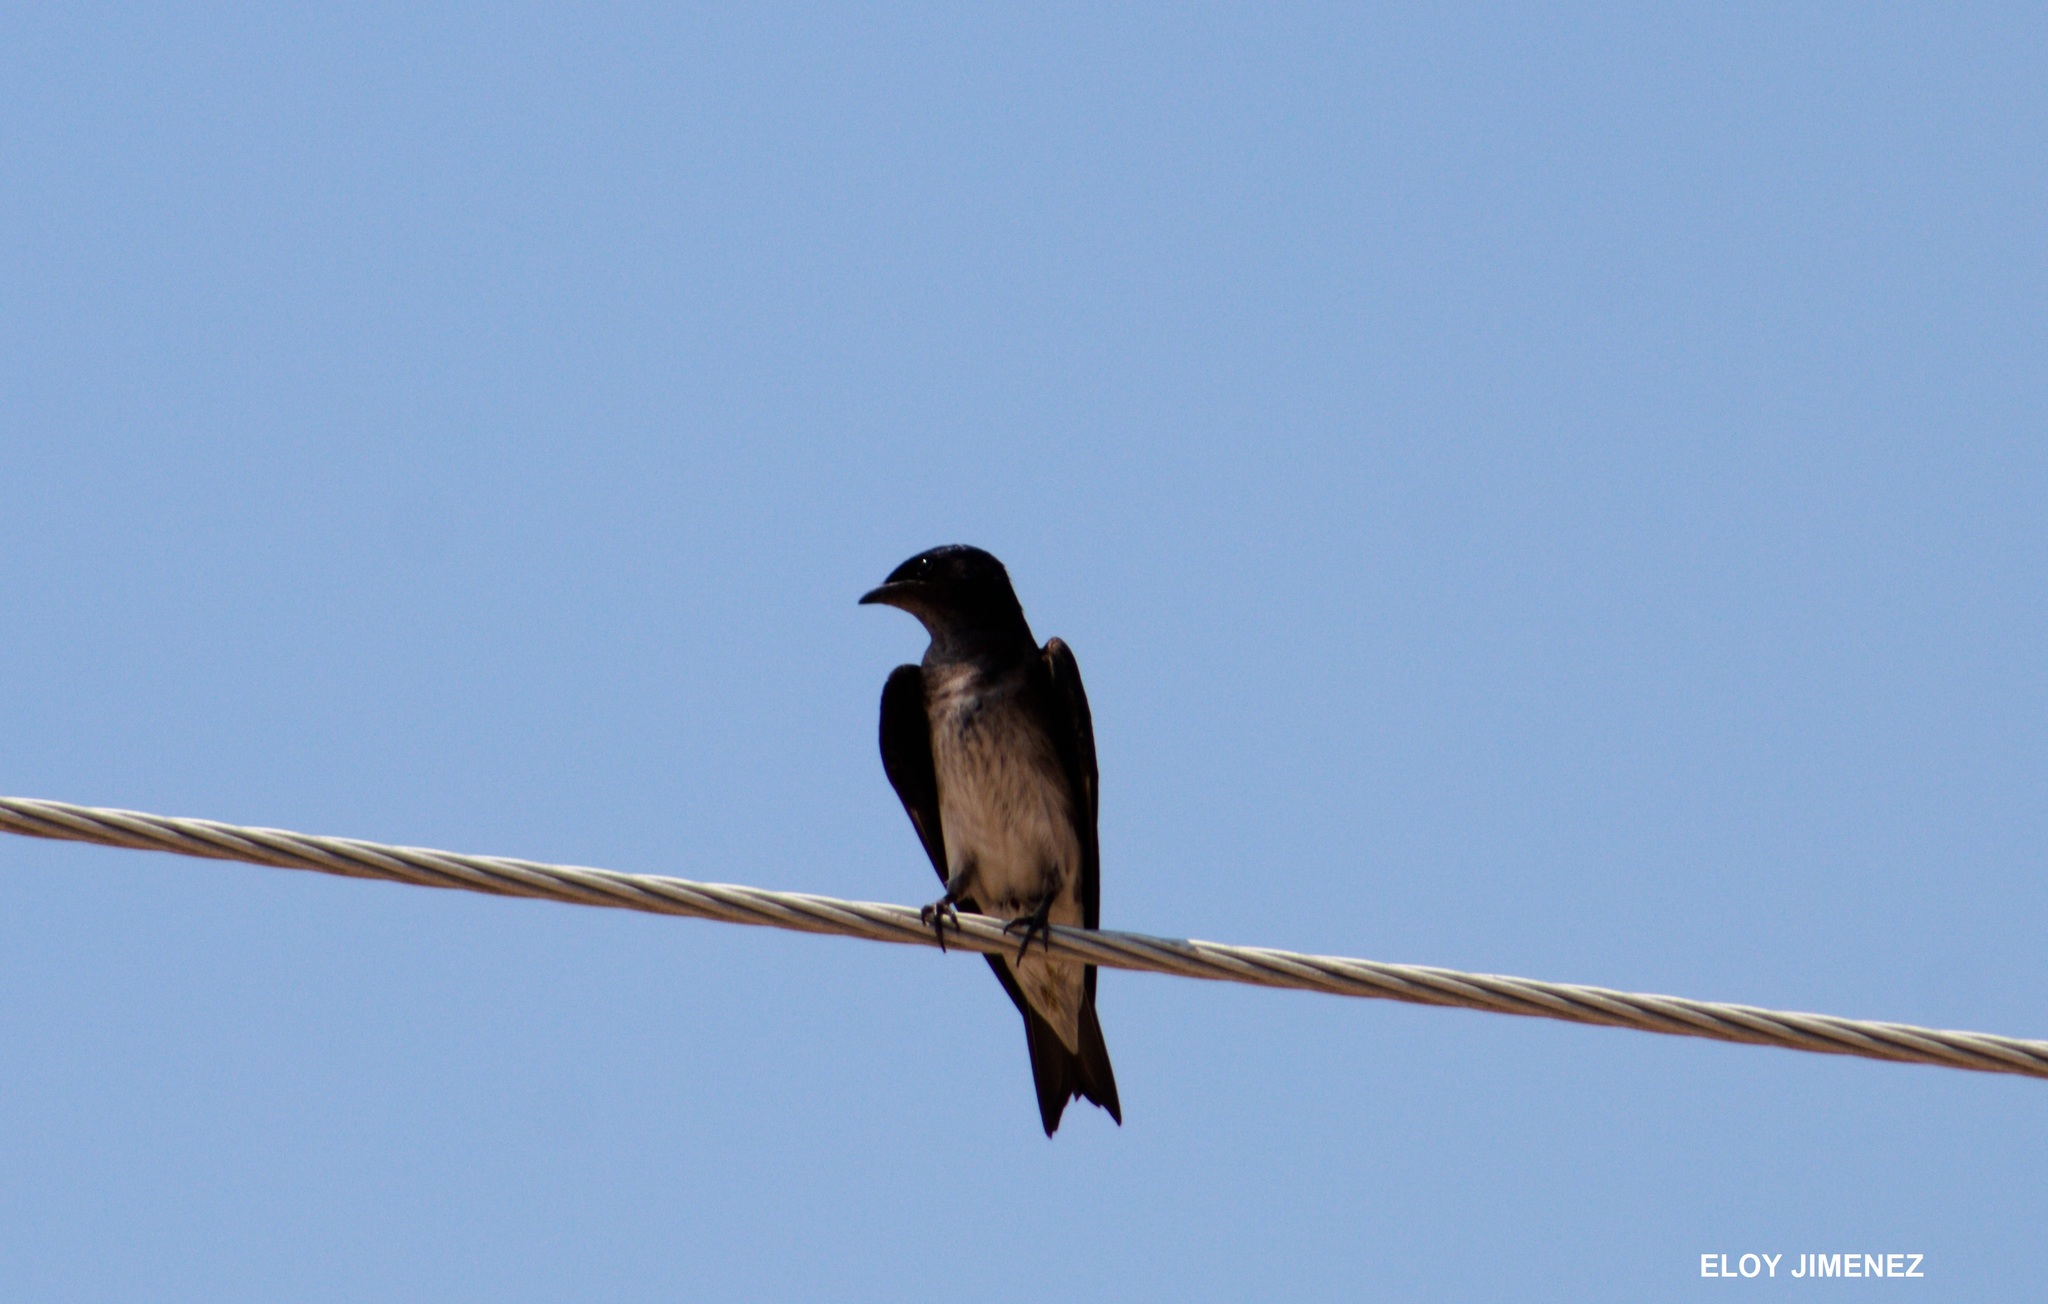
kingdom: Animalia
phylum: Chordata
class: Aves
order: Passeriformes
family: Hirundinidae
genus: Progne
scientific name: Progne chalybea
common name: Grey-breasted martin
